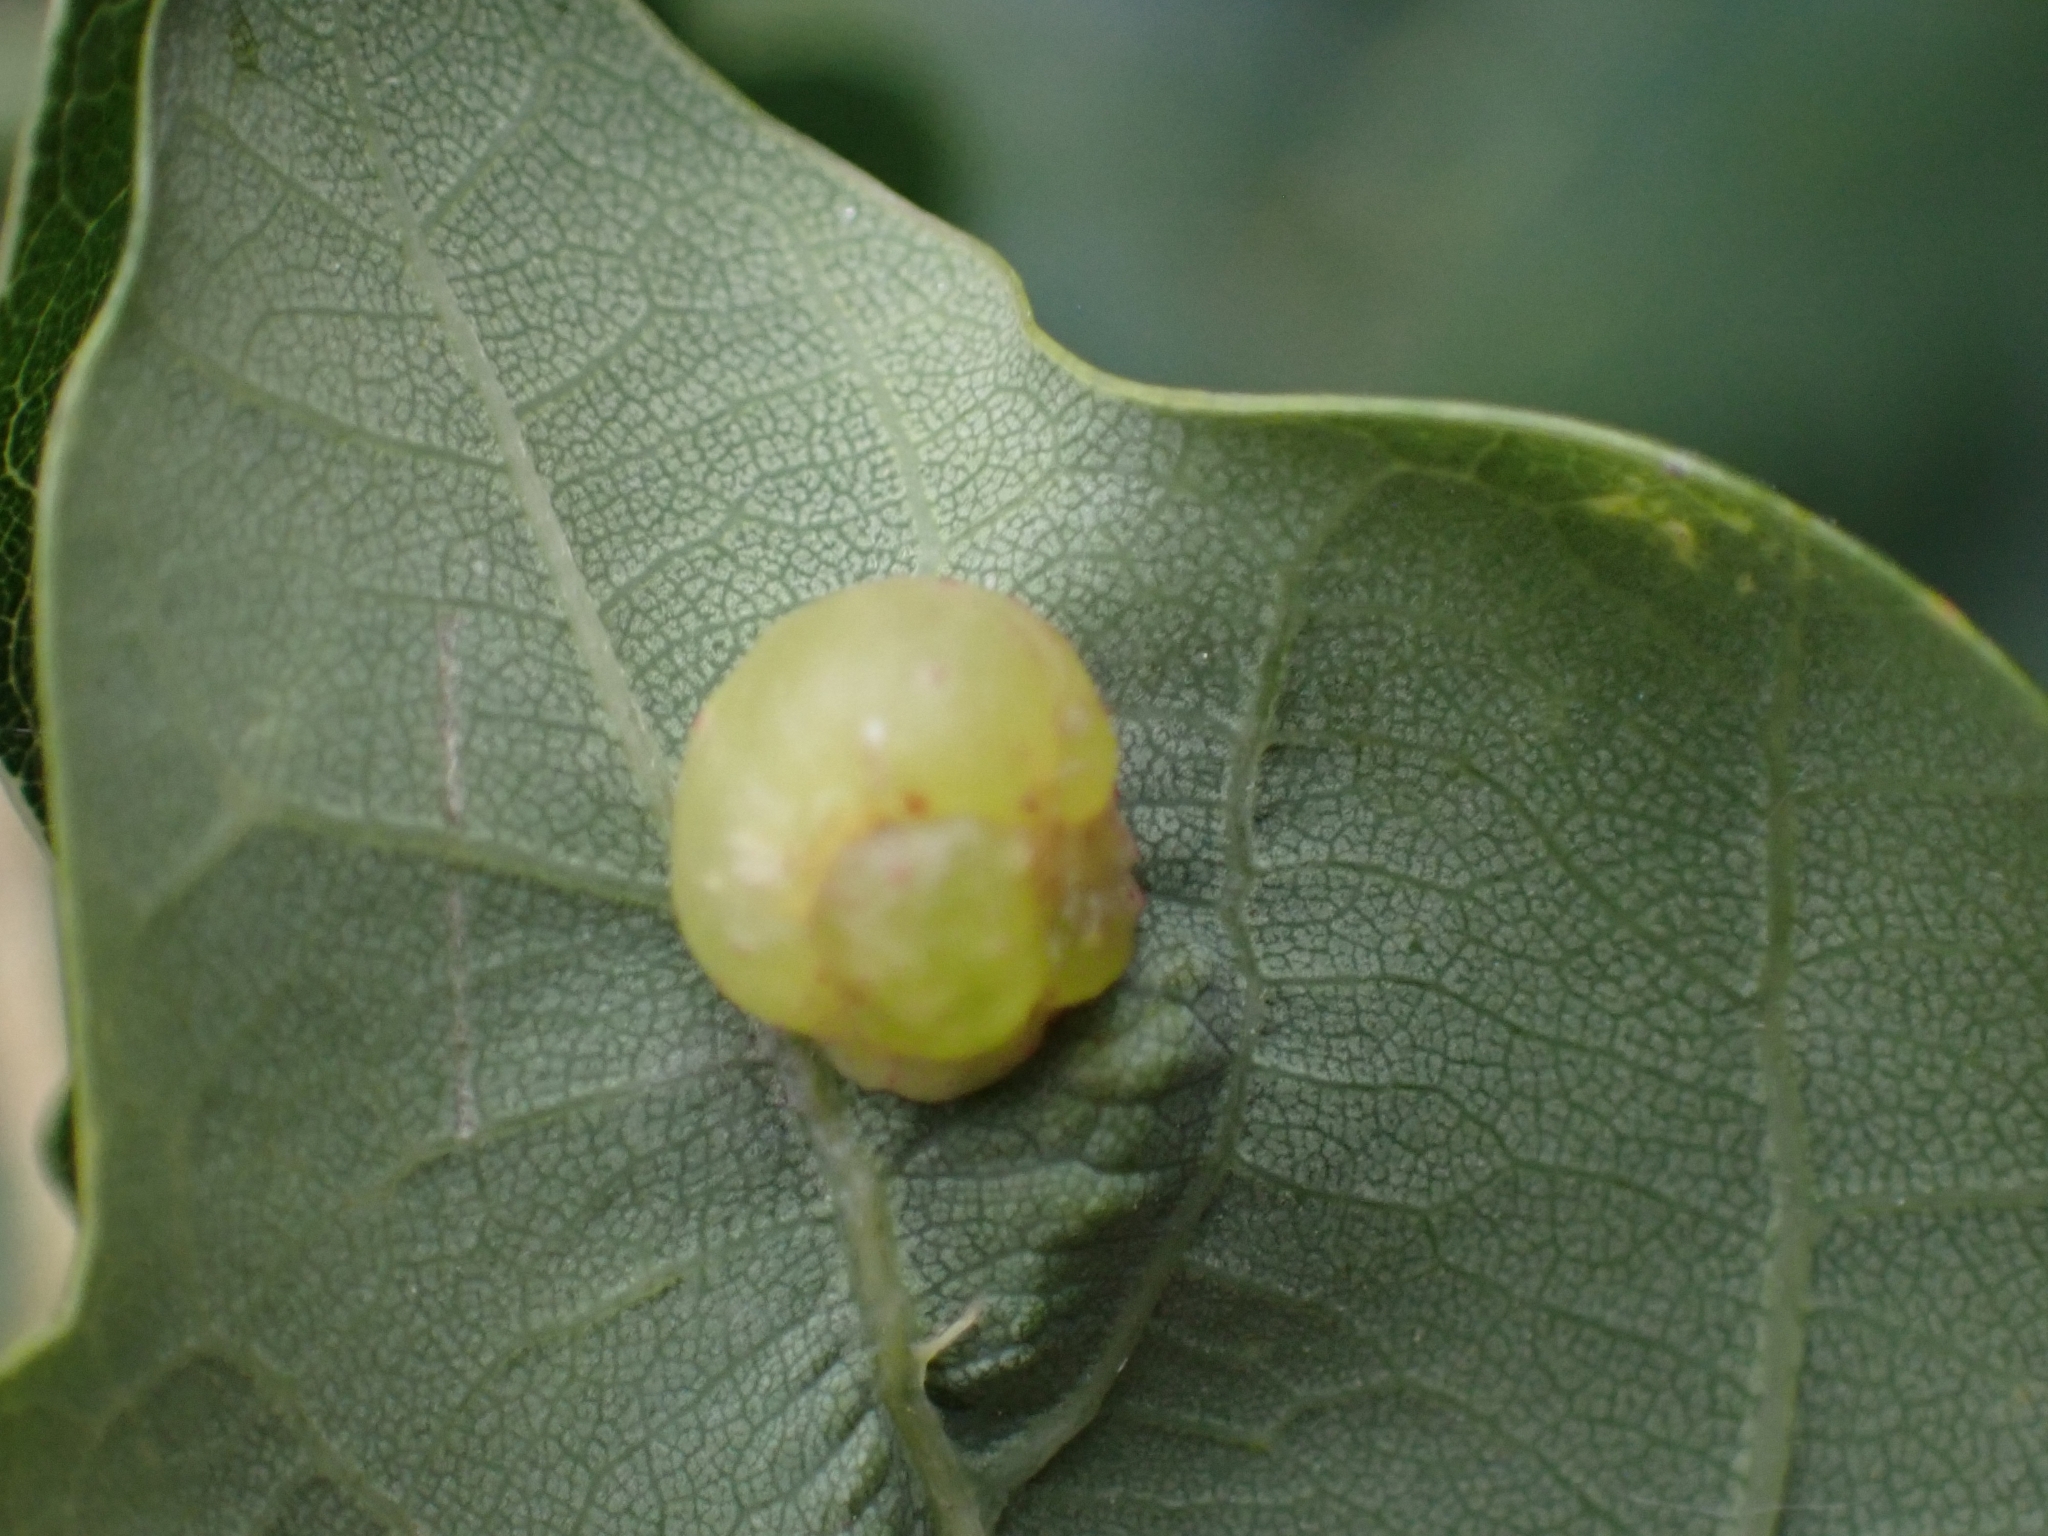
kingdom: Animalia
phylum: Arthropoda
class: Insecta
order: Hymenoptera
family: Cynipidae
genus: Neuroterus
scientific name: Neuroterus quercusbaccarum
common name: Common spangle gall
